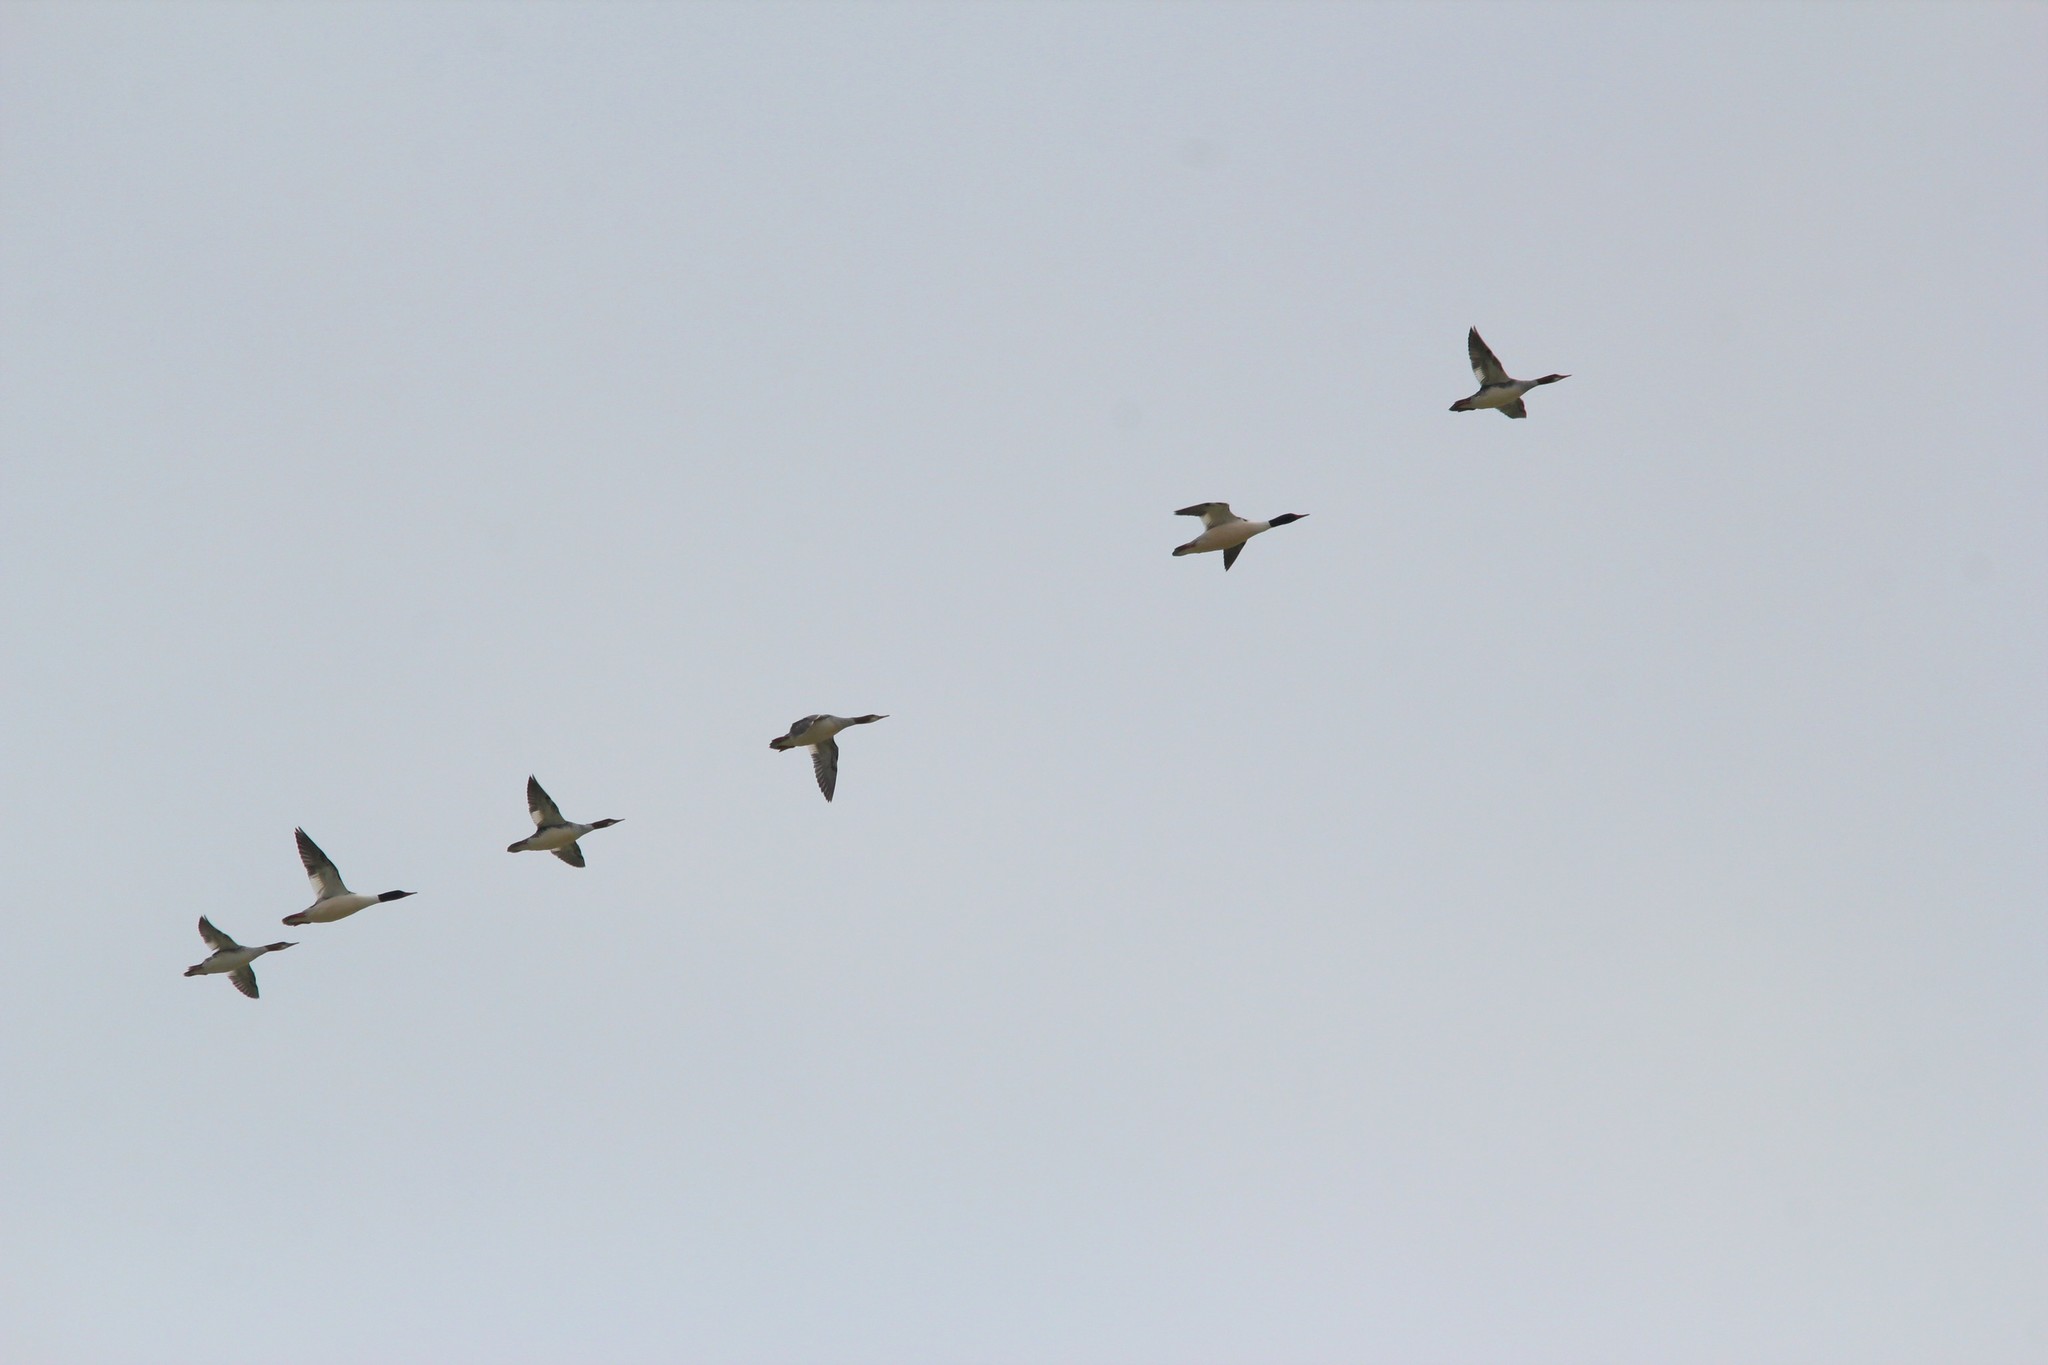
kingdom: Animalia
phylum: Chordata
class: Aves
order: Anseriformes
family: Anatidae
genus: Mergus
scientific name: Mergus merganser
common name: Common merganser
